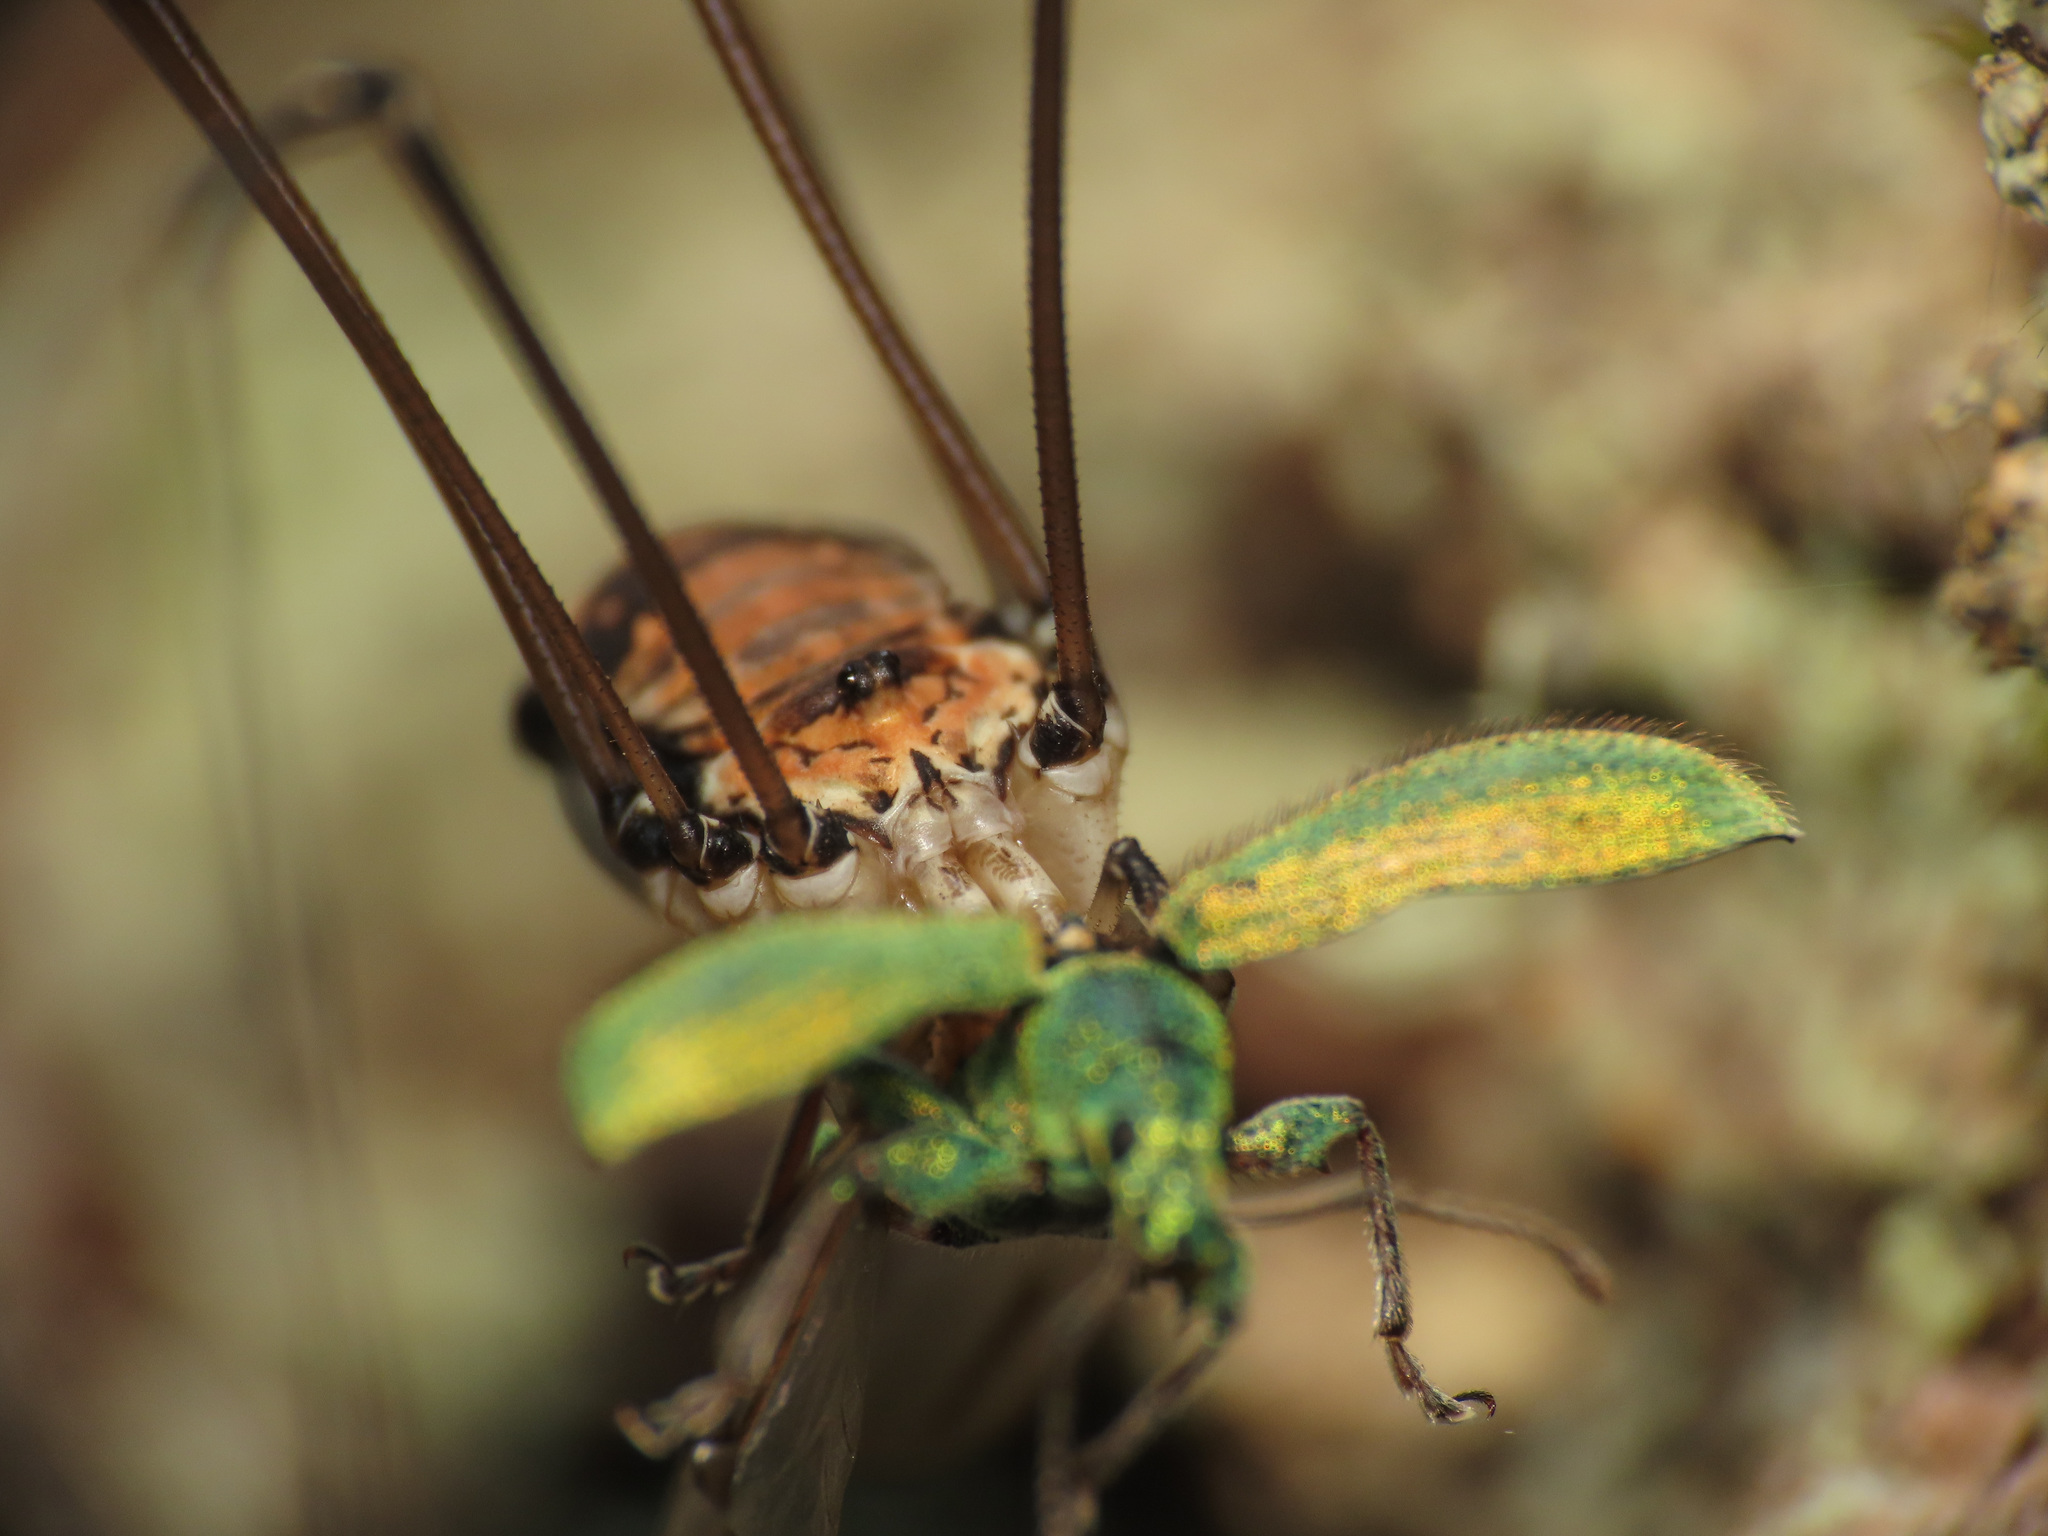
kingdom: Animalia
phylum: Arthropoda
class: Arachnida
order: Opiliones
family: Sclerosomatidae
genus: Leiobunum
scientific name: Leiobunum limbatum
